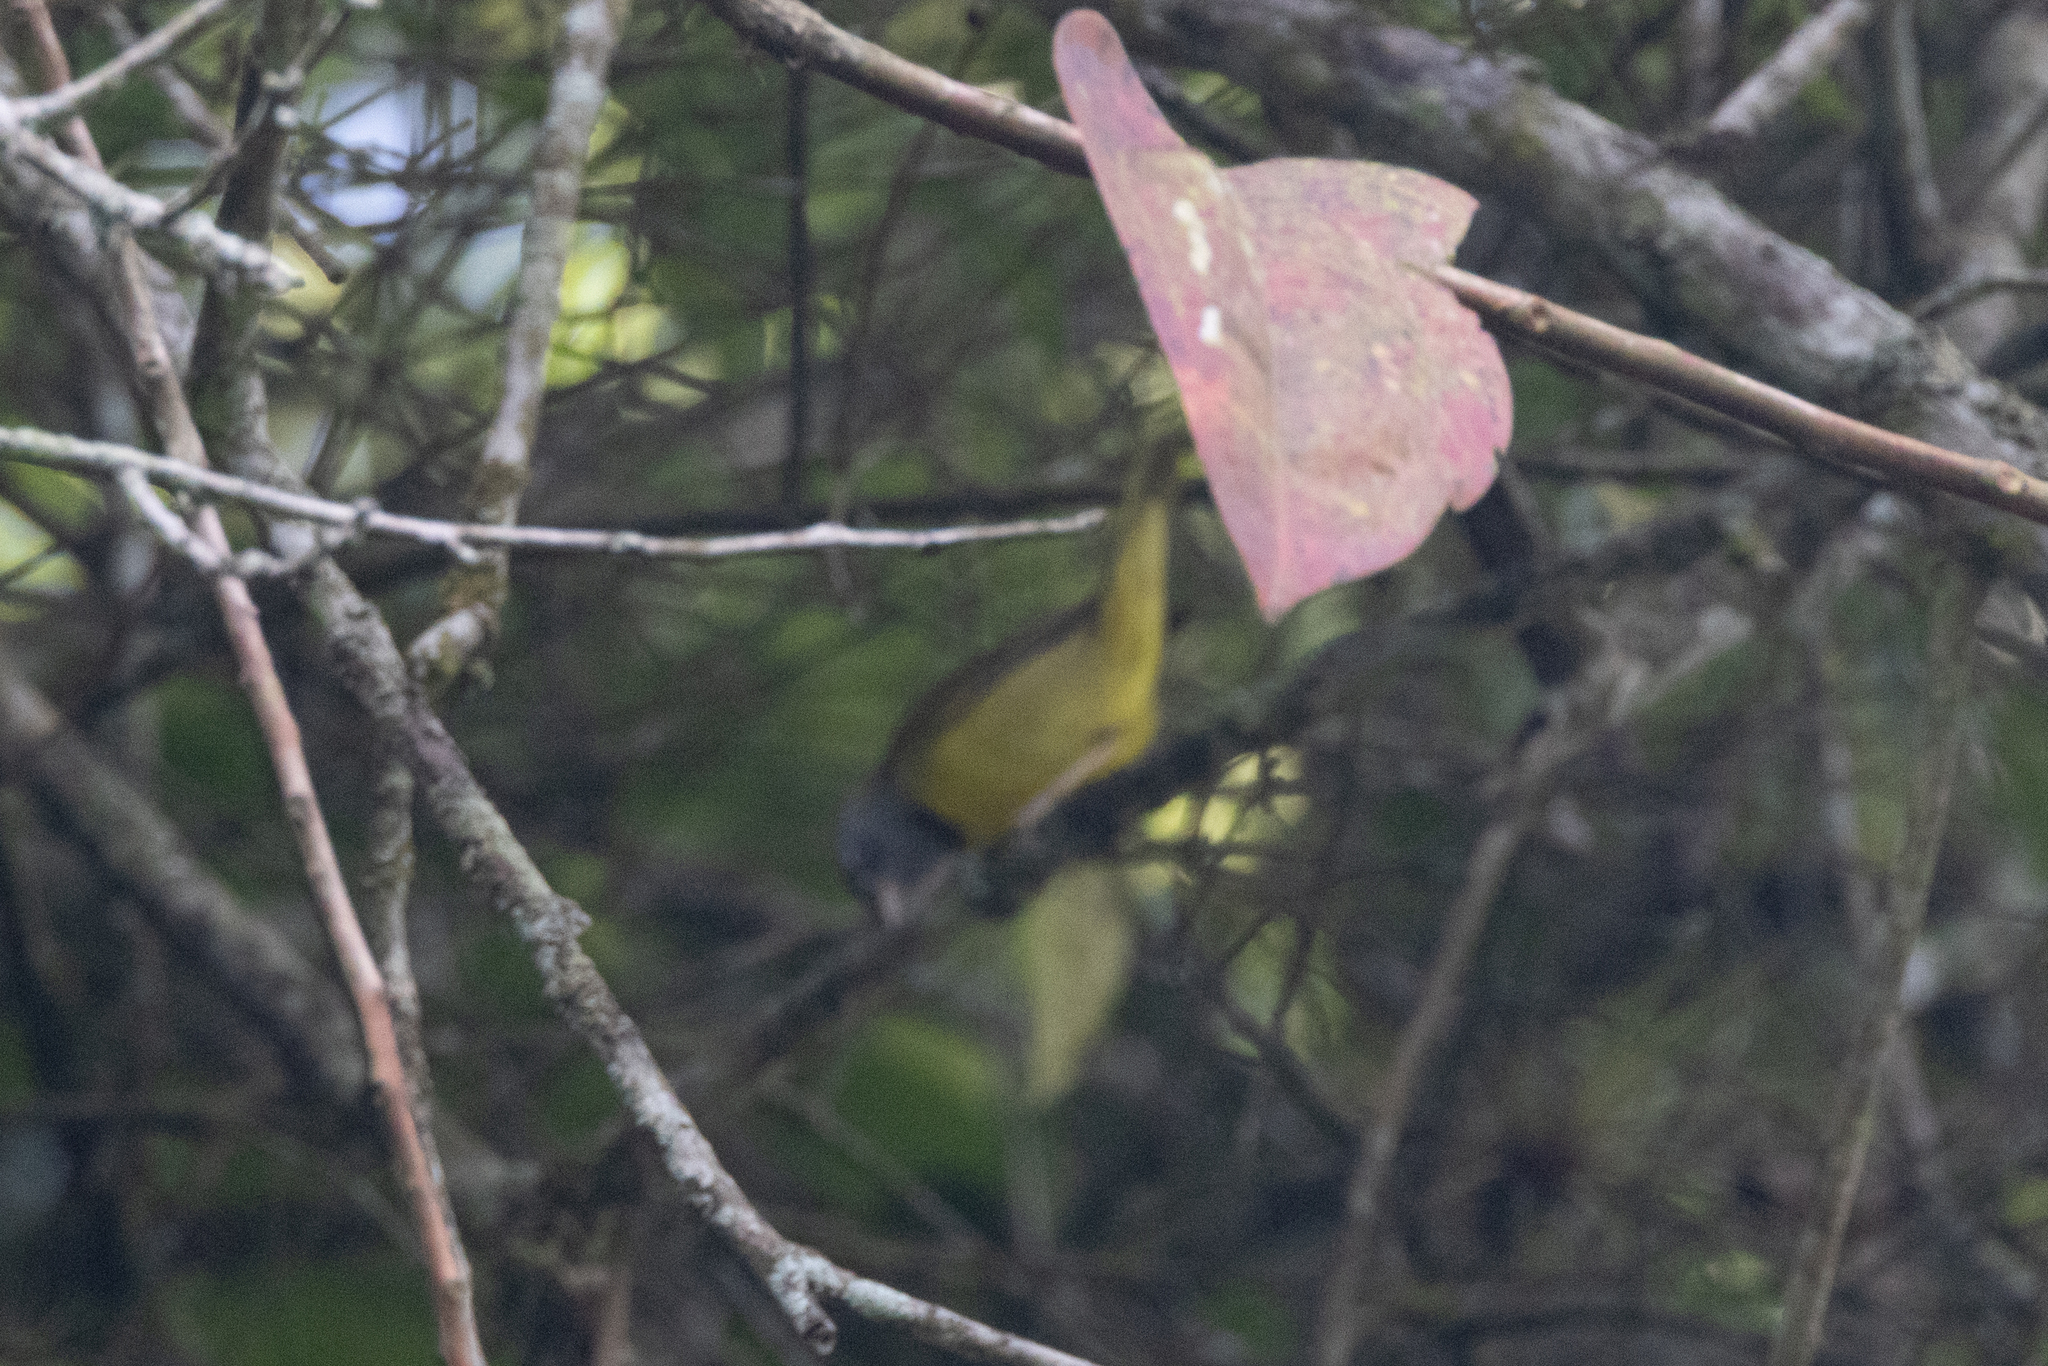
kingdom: Animalia
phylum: Chordata
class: Aves
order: Passeriformes
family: Parulidae
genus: Geothlypis
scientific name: Geothlypis philadelphia
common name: Mourning warbler
